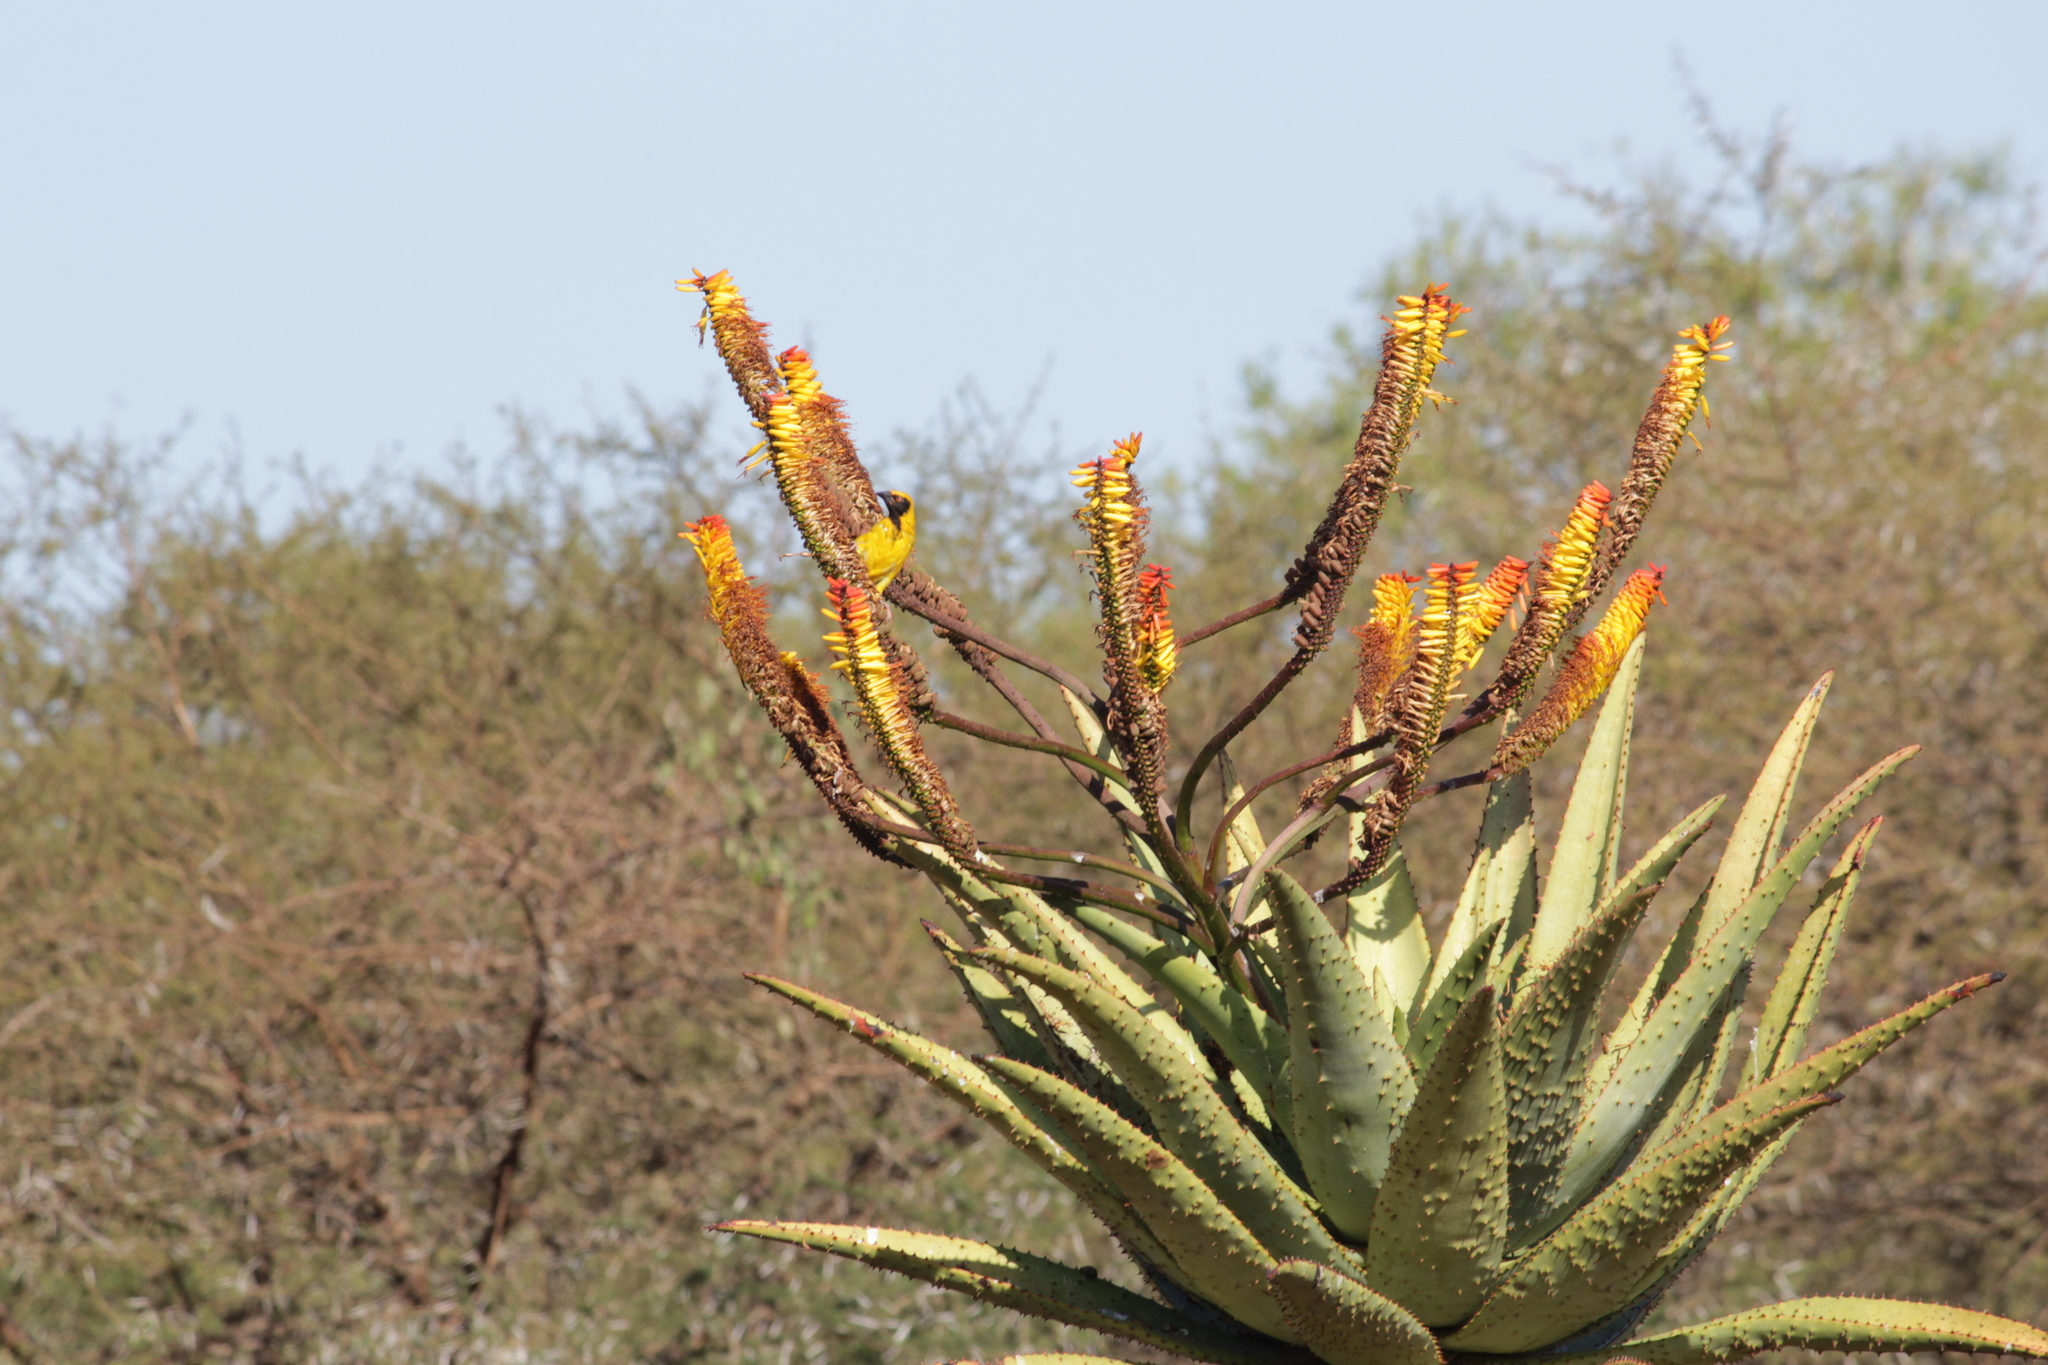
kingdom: Animalia
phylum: Chordata
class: Aves
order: Passeriformes
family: Ploceidae
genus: Ploceus
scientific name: Ploceus cucullatus
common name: Village weaver
